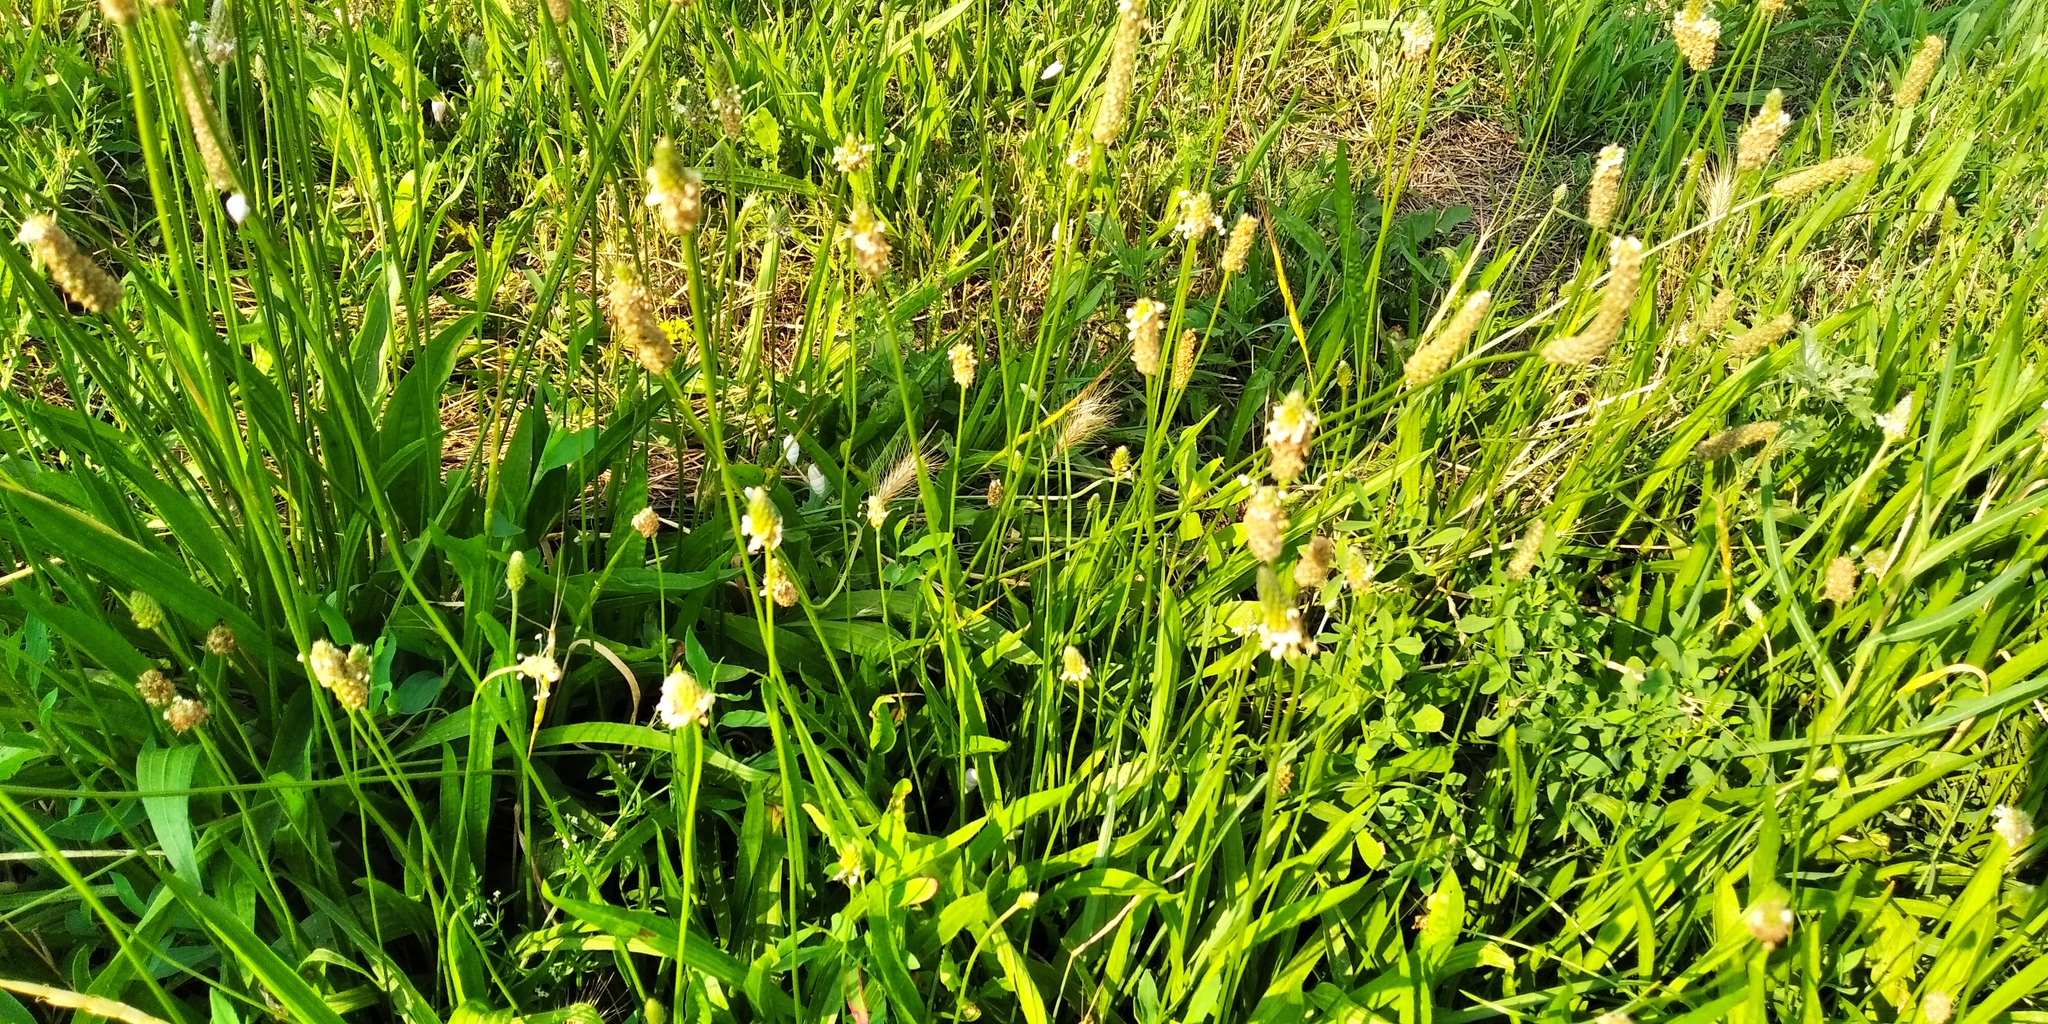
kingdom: Plantae
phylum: Tracheophyta
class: Magnoliopsida
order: Lamiales
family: Plantaginaceae
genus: Plantago
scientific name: Plantago lanceolata
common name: Ribwort plantain
